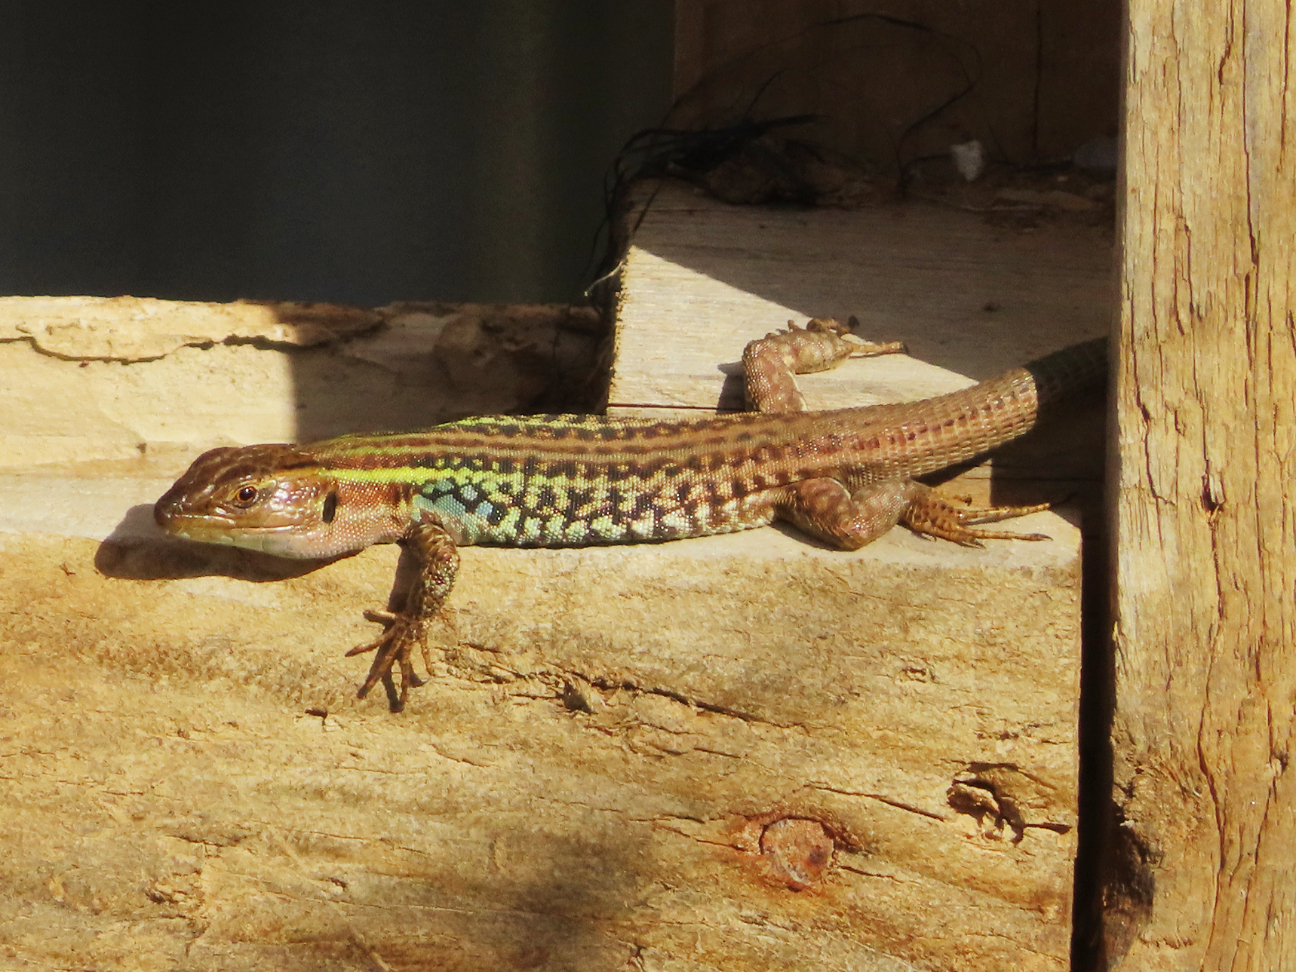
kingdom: Animalia
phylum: Chordata
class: Squamata
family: Lacertidae
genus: Podarcis
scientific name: Podarcis peloponnesiacus
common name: Peloponnese wall lizard
